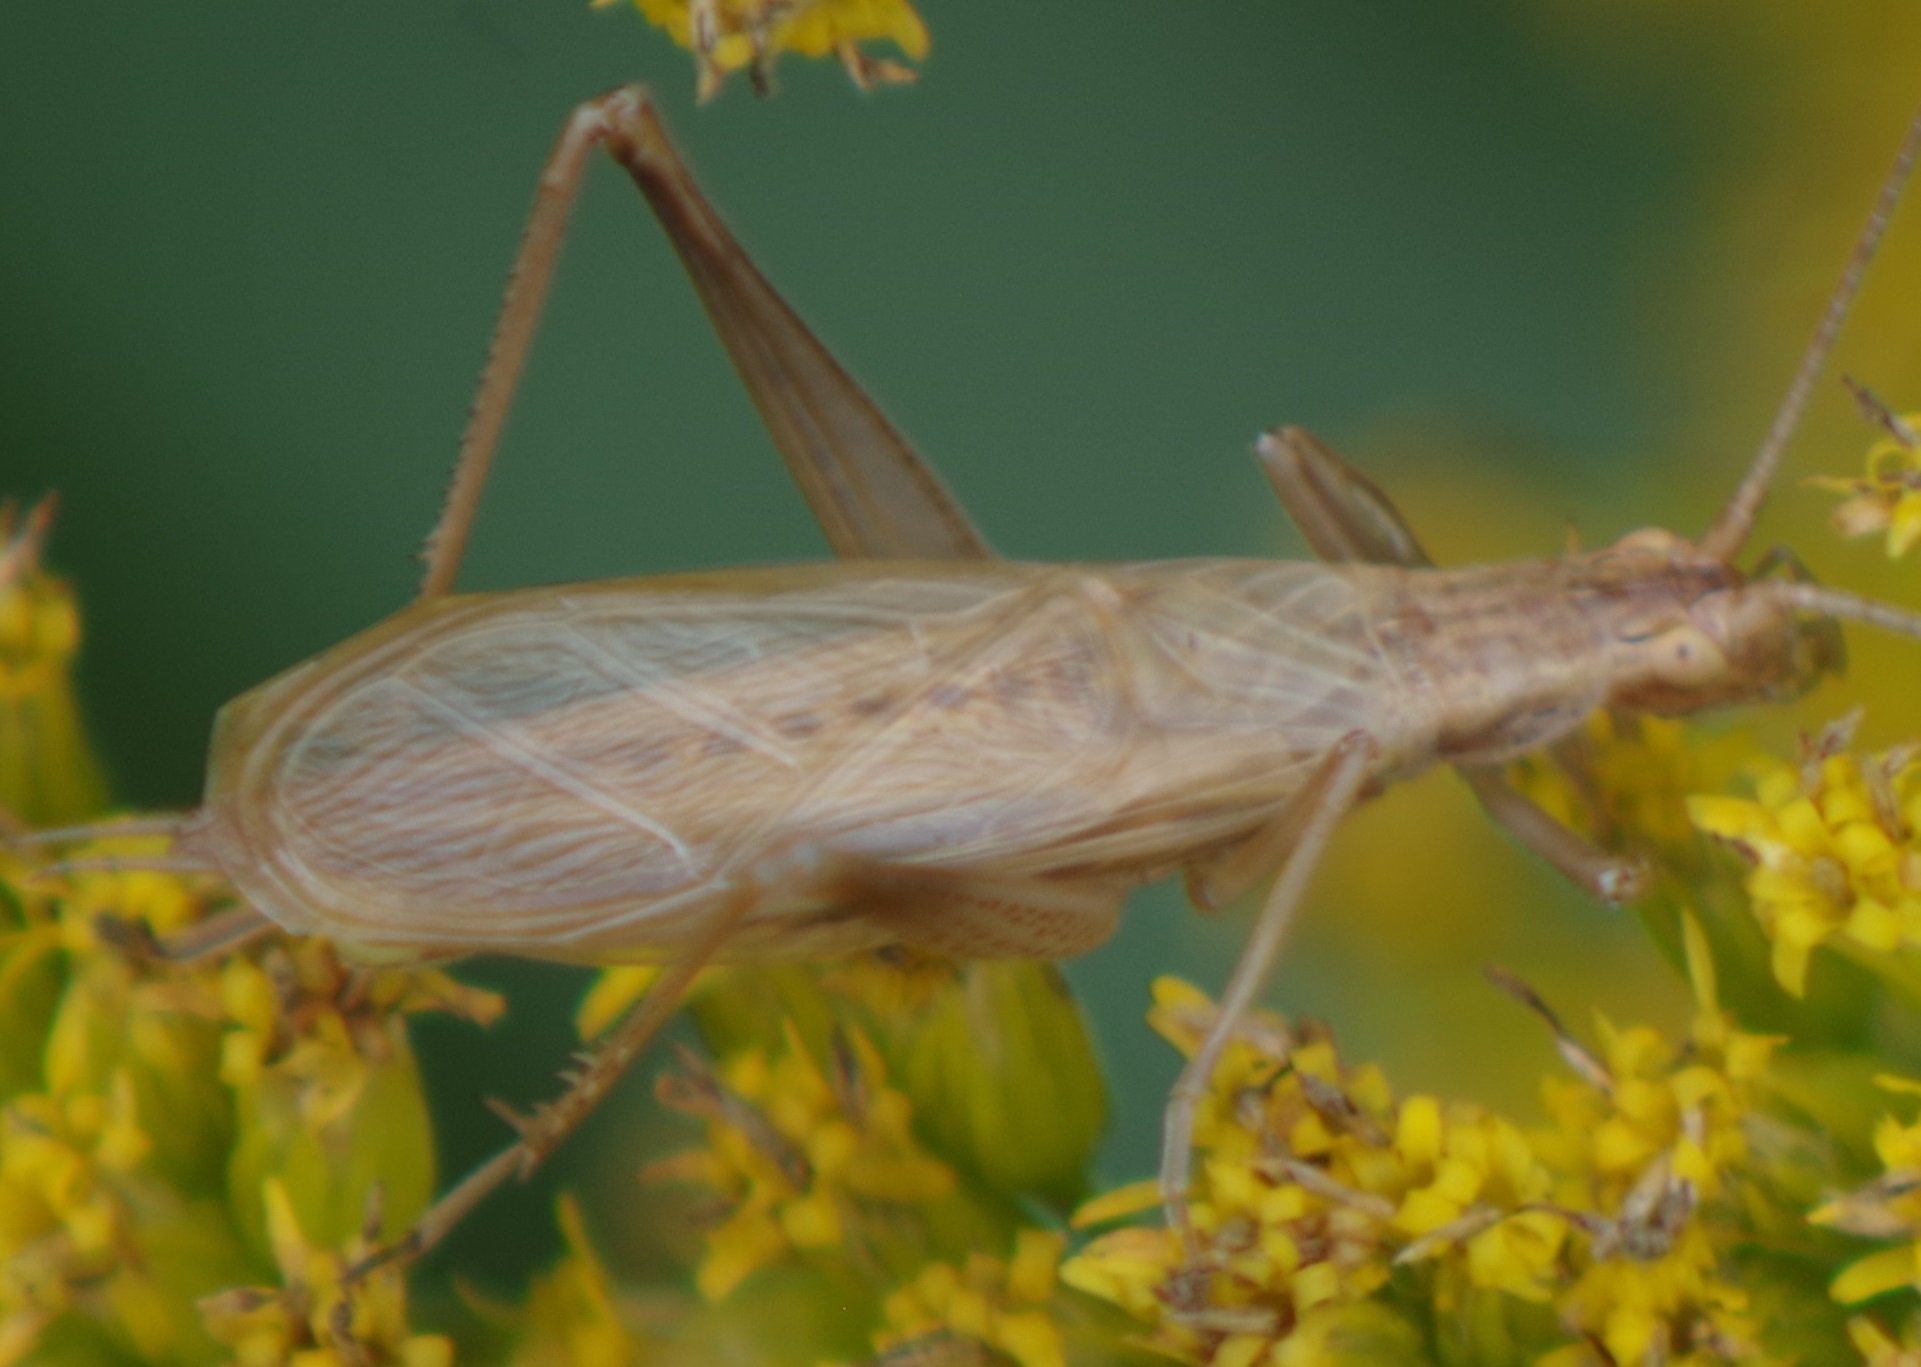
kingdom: Animalia
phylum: Arthropoda
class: Insecta
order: Orthoptera
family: Gryllidae
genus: Oecanthus
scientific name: Oecanthus pellucens
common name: Tree-cricket
